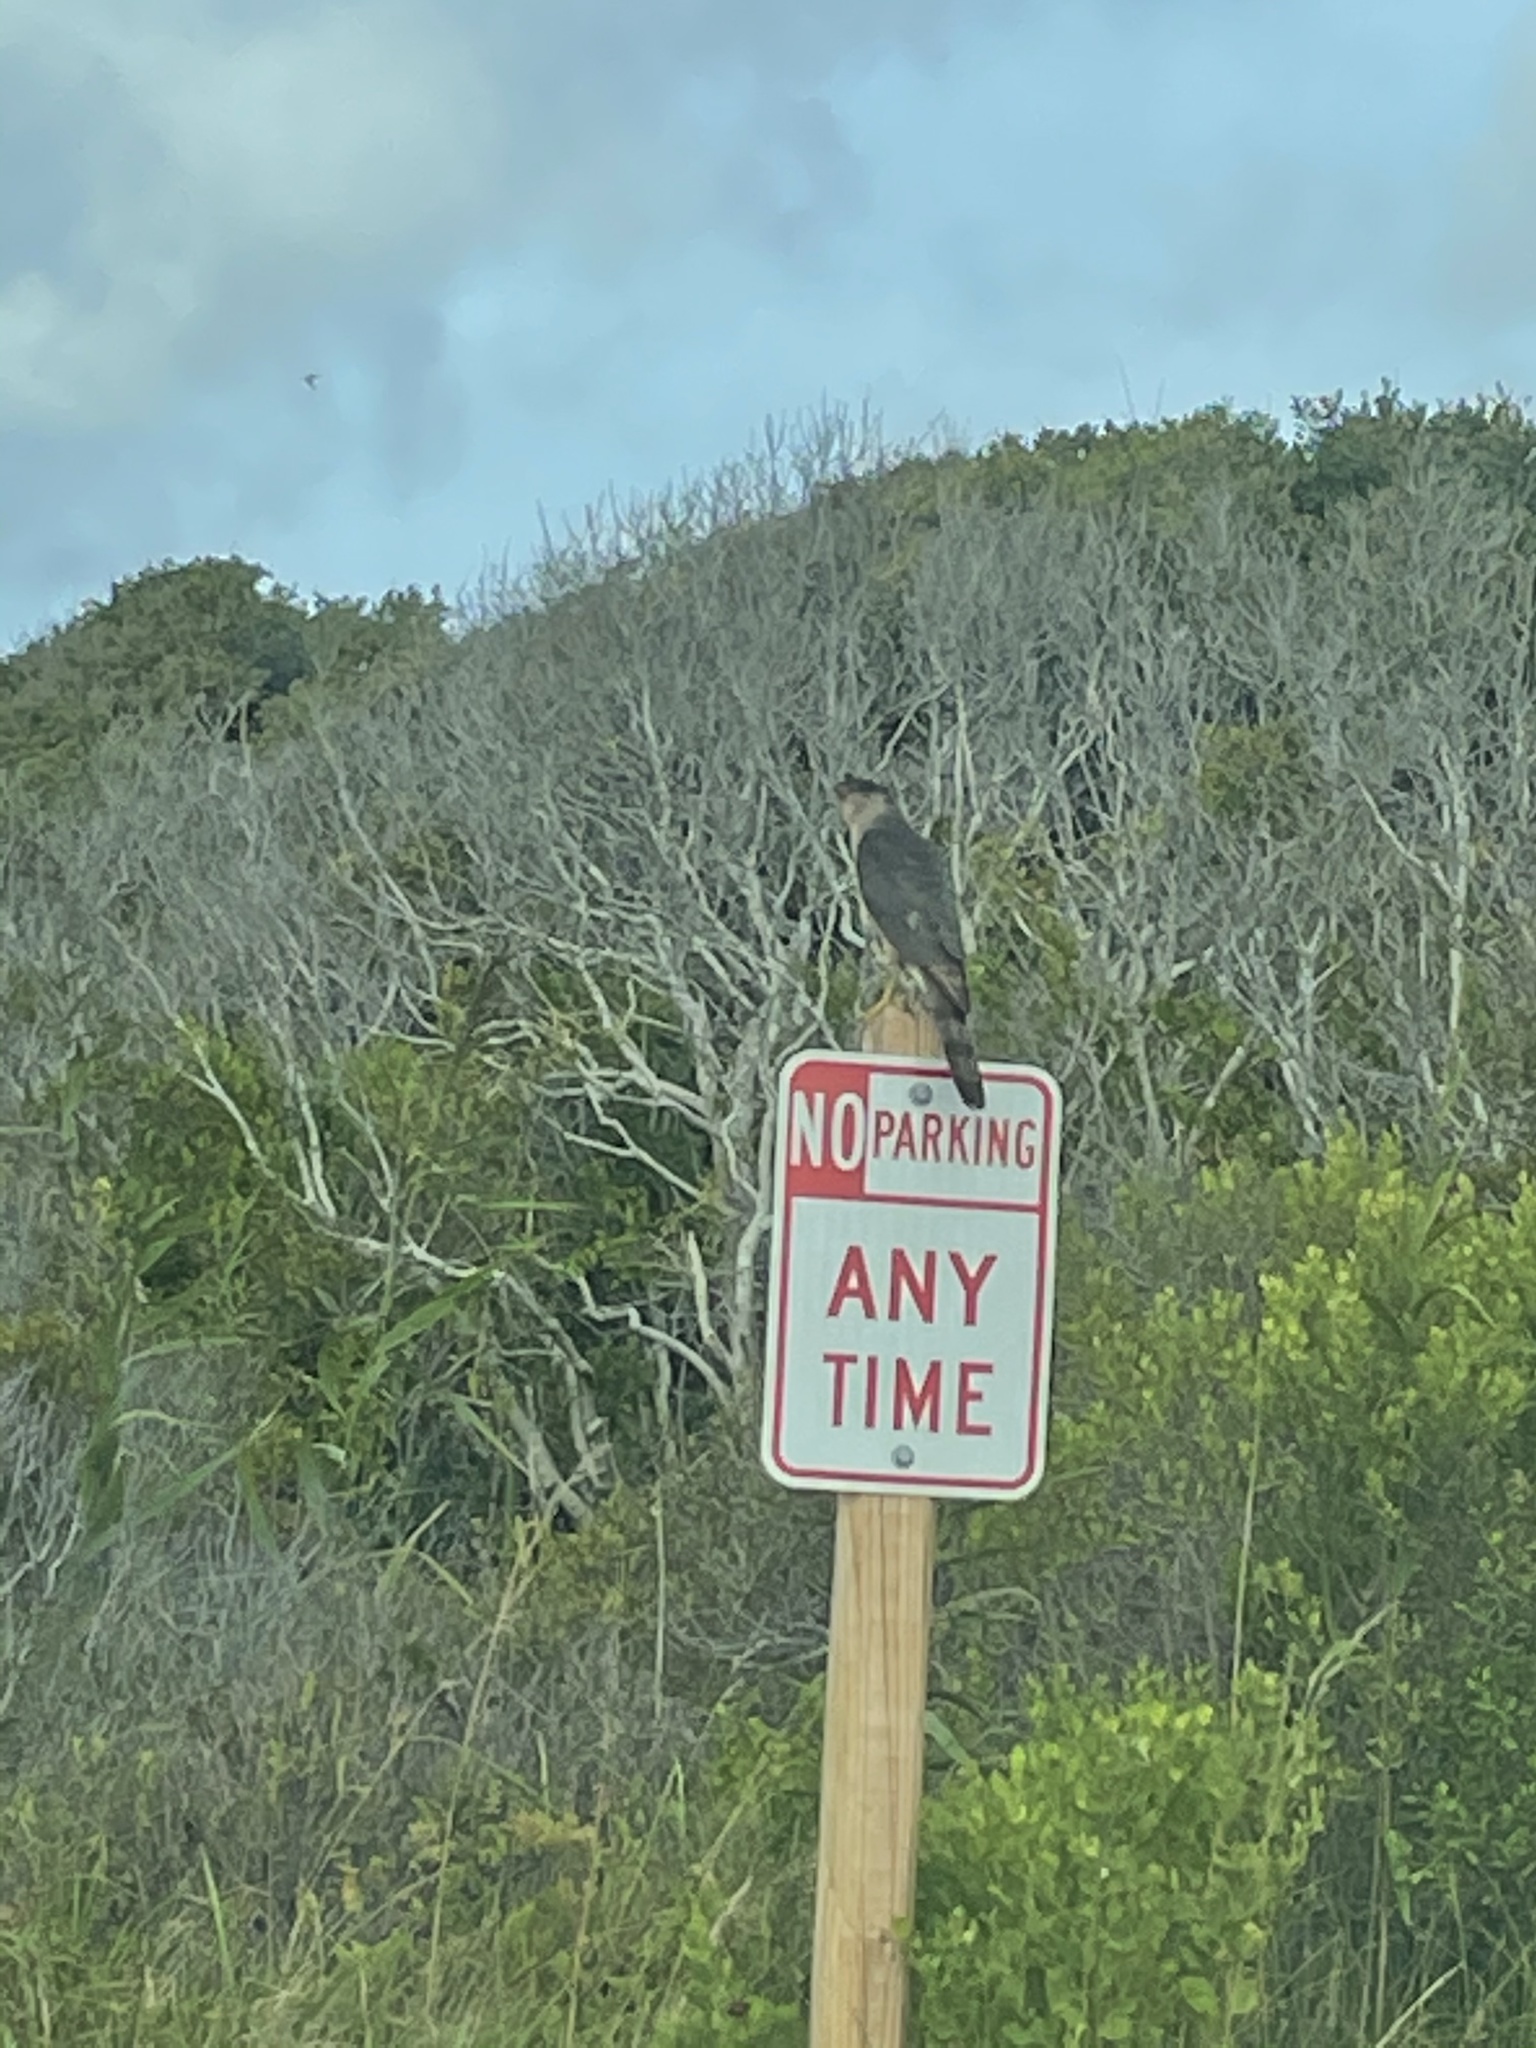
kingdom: Animalia
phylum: Chordata
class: Aves
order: Accipitriformes
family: Accipitridae
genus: Accipiter
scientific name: Accipiter cooperii
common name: Cooper's hawk
